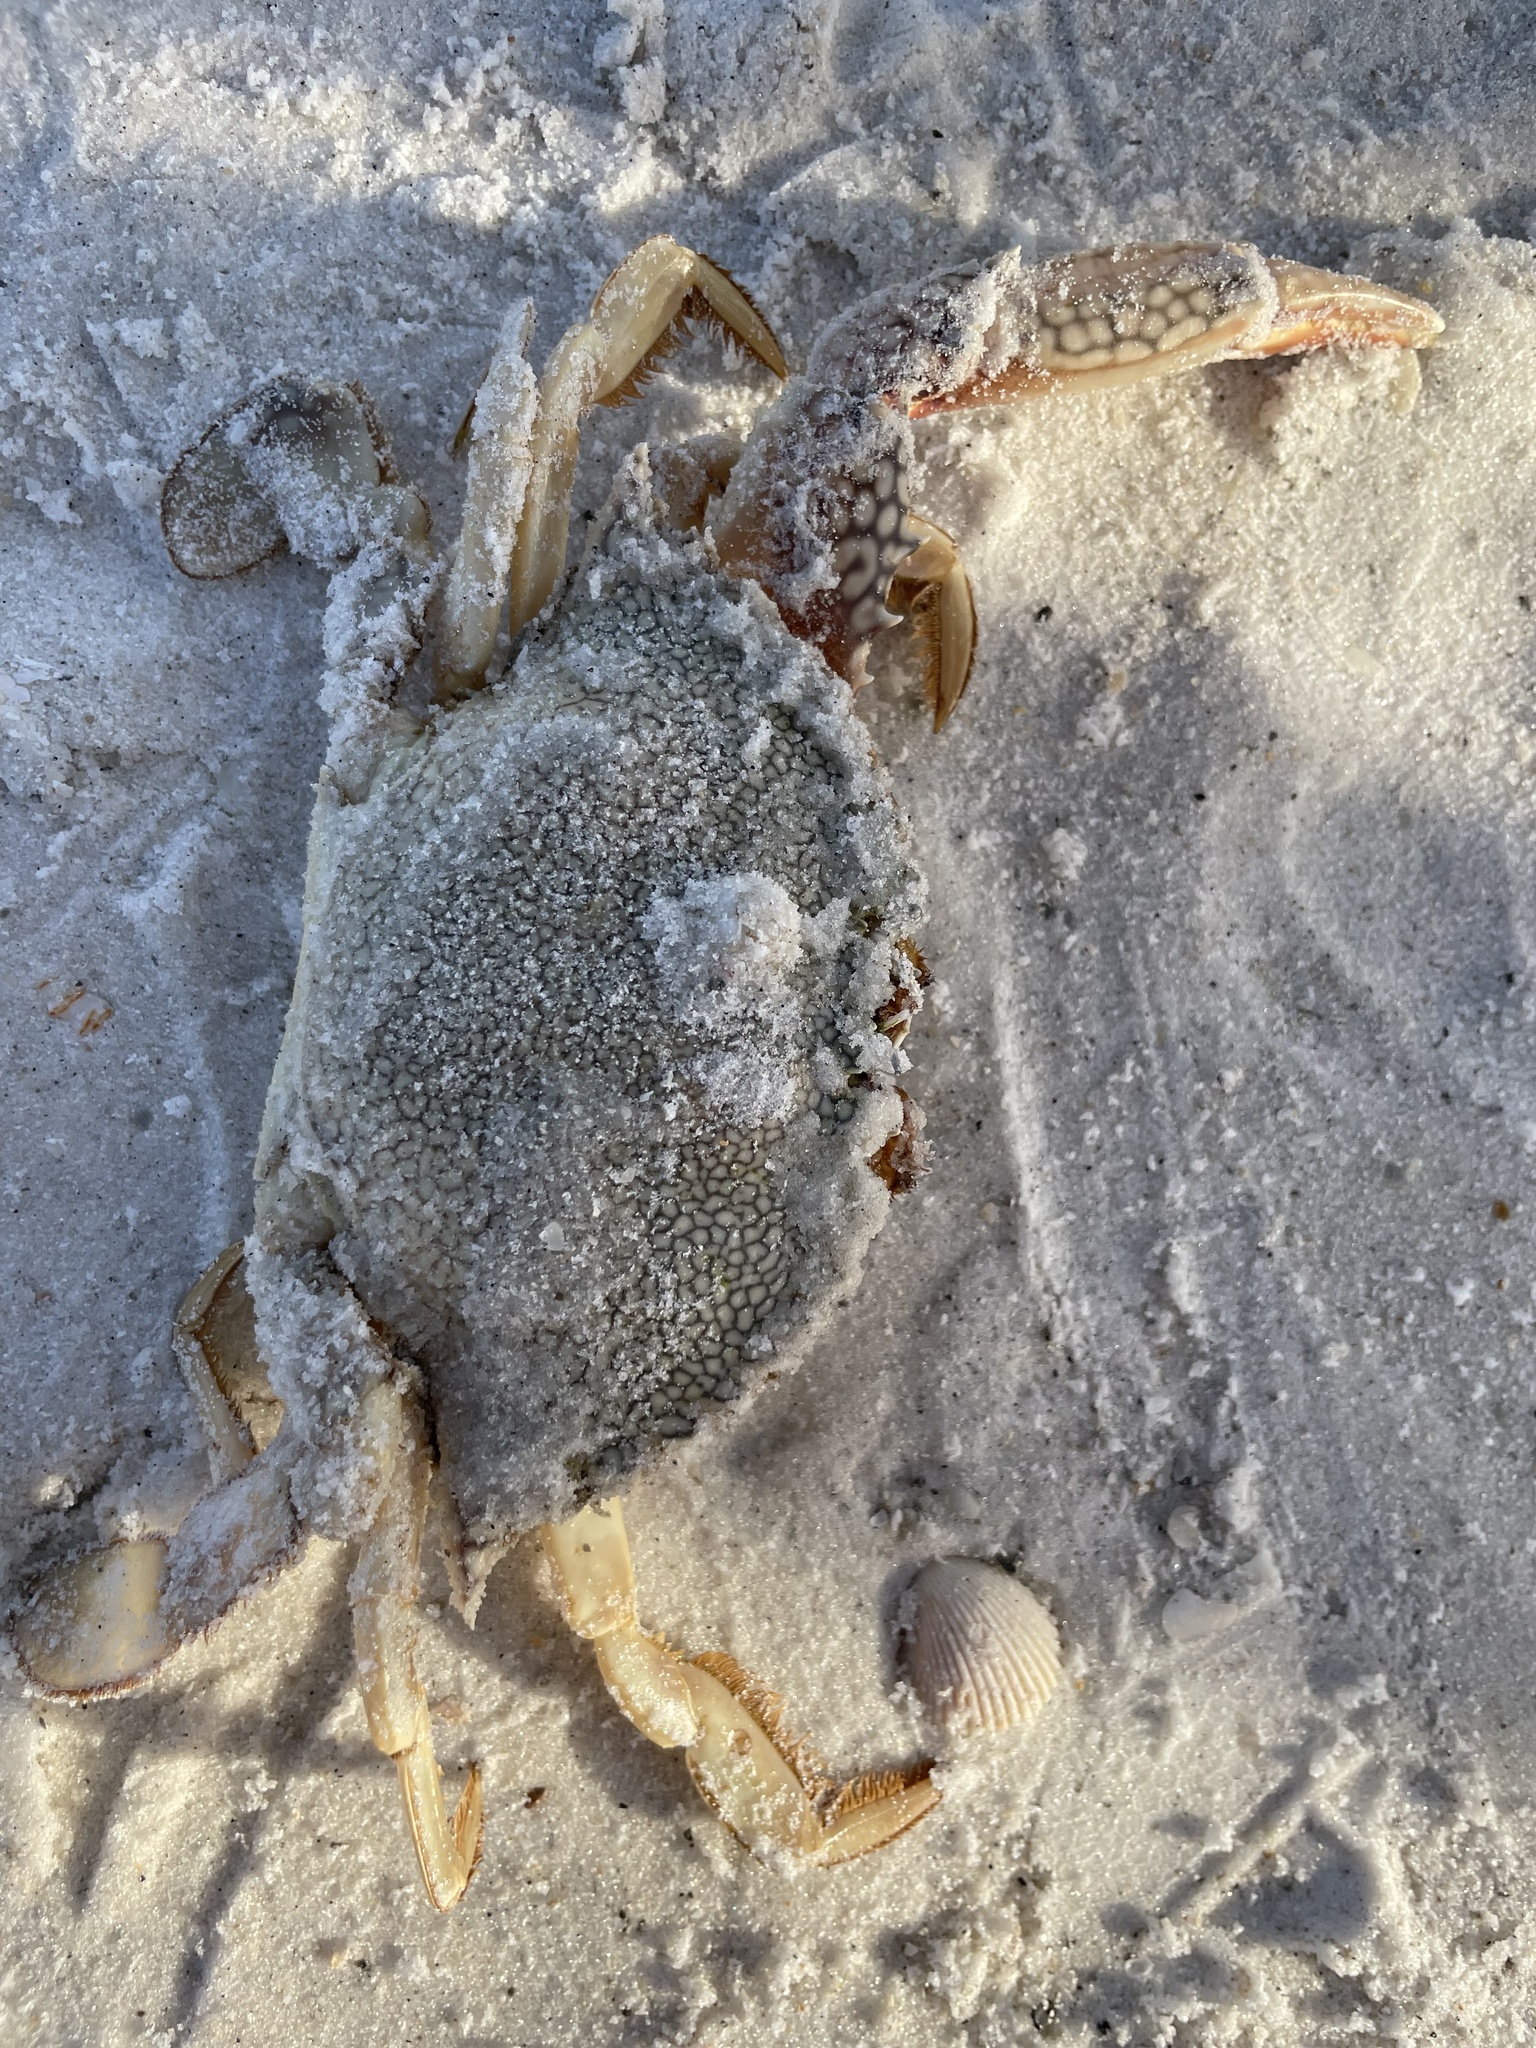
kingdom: Animalia
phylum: Arthropoda
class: Malacostraca
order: Decapoda
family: Portunidae
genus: Arenaeus
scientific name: Arenaeus cribrarius
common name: Speckled crab
